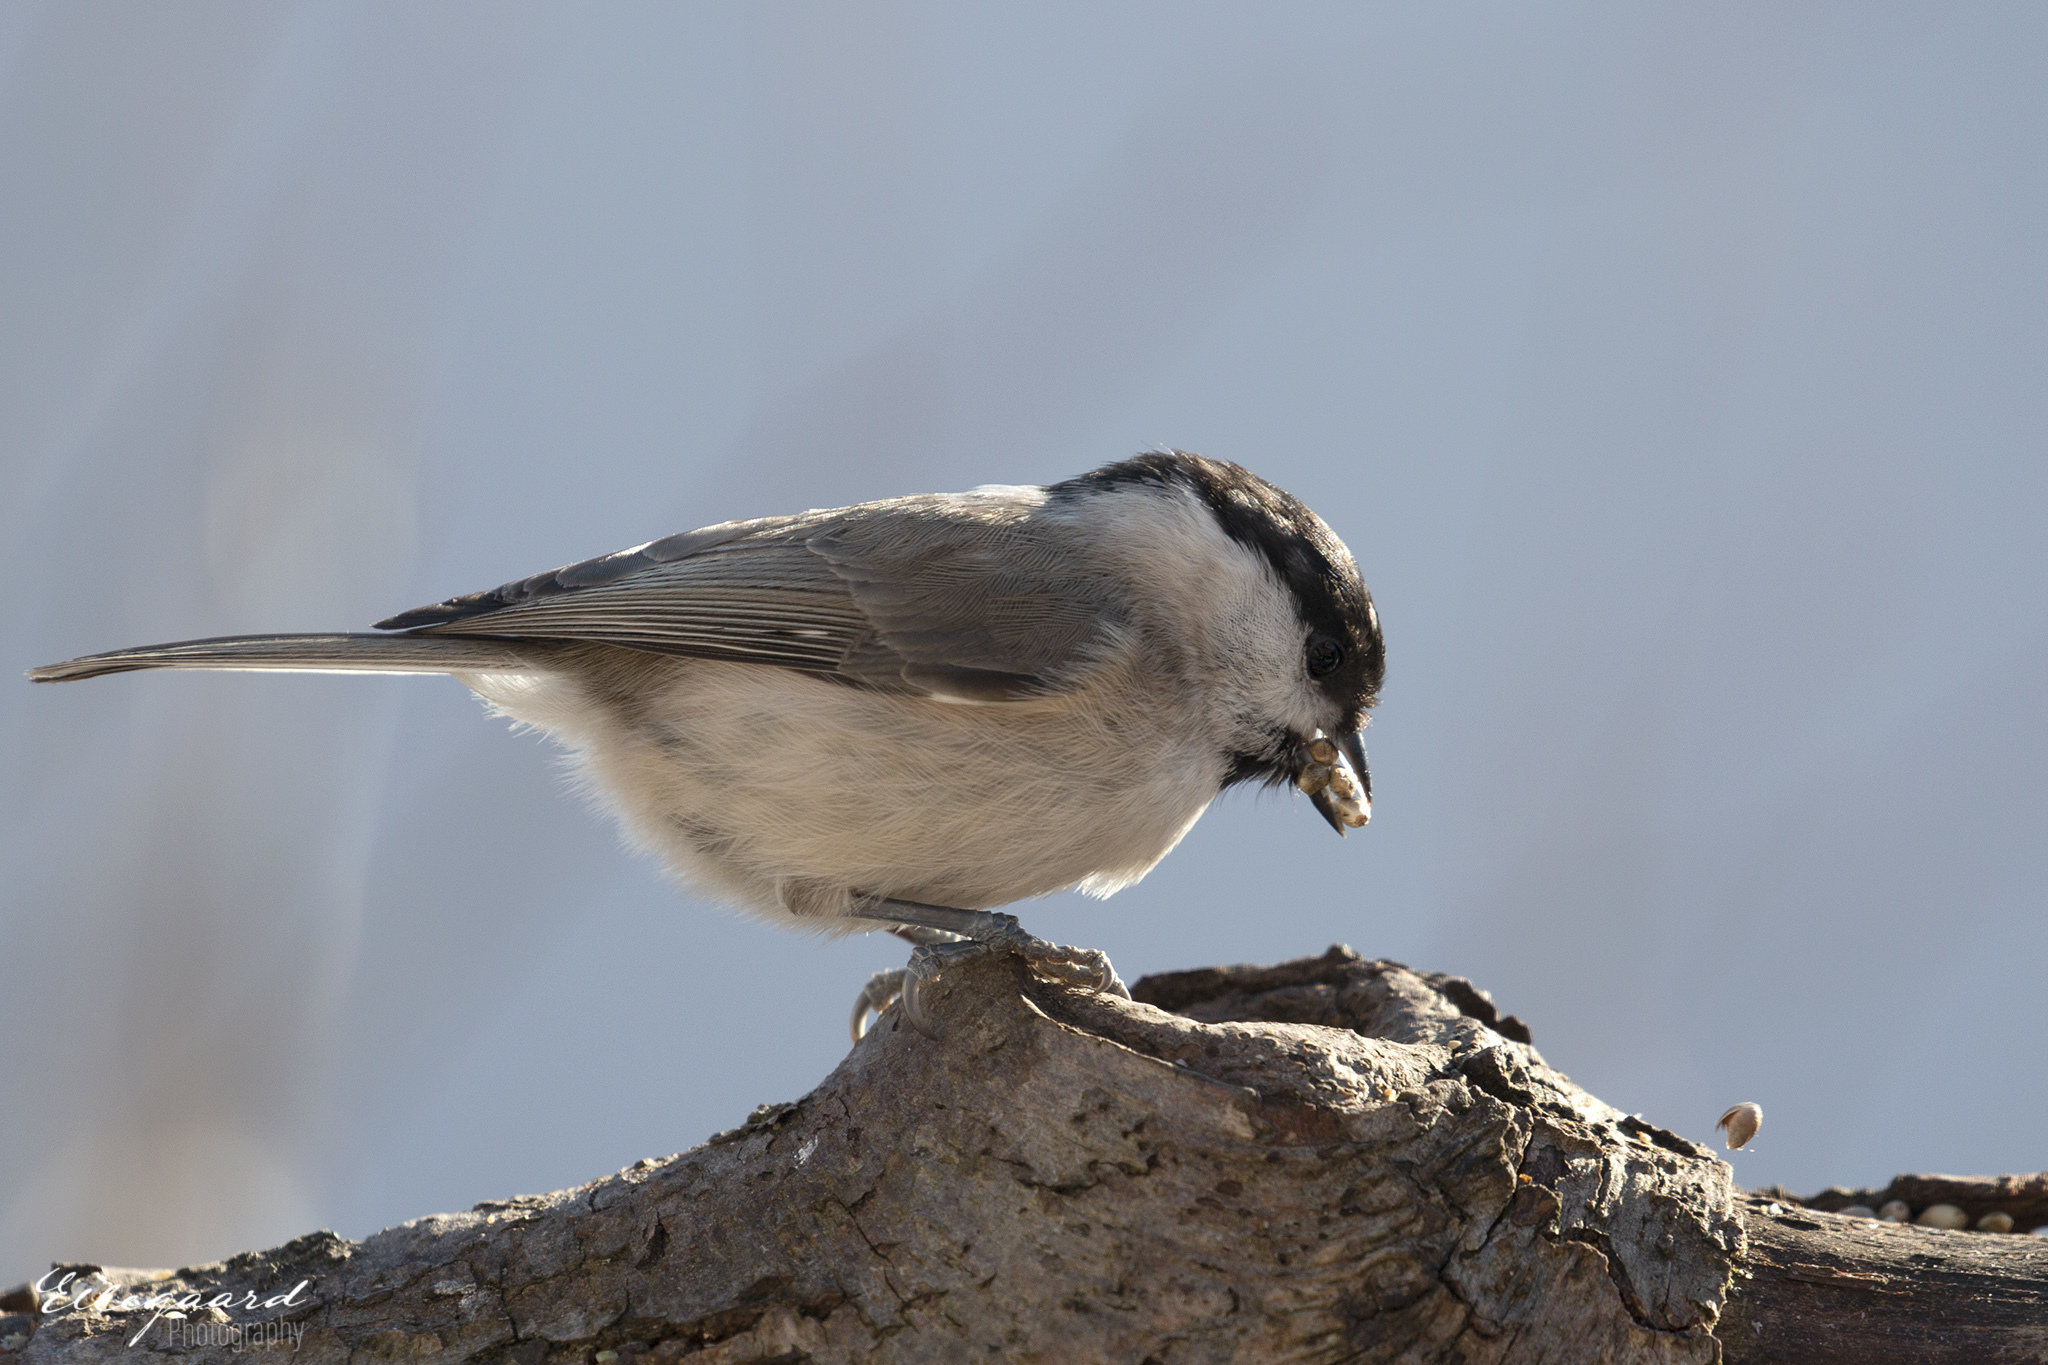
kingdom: Animalia
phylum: Chordata
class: Aves
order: Passeriformes
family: Paridae
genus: Poecile
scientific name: Poecile palustris
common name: Marsh tit
